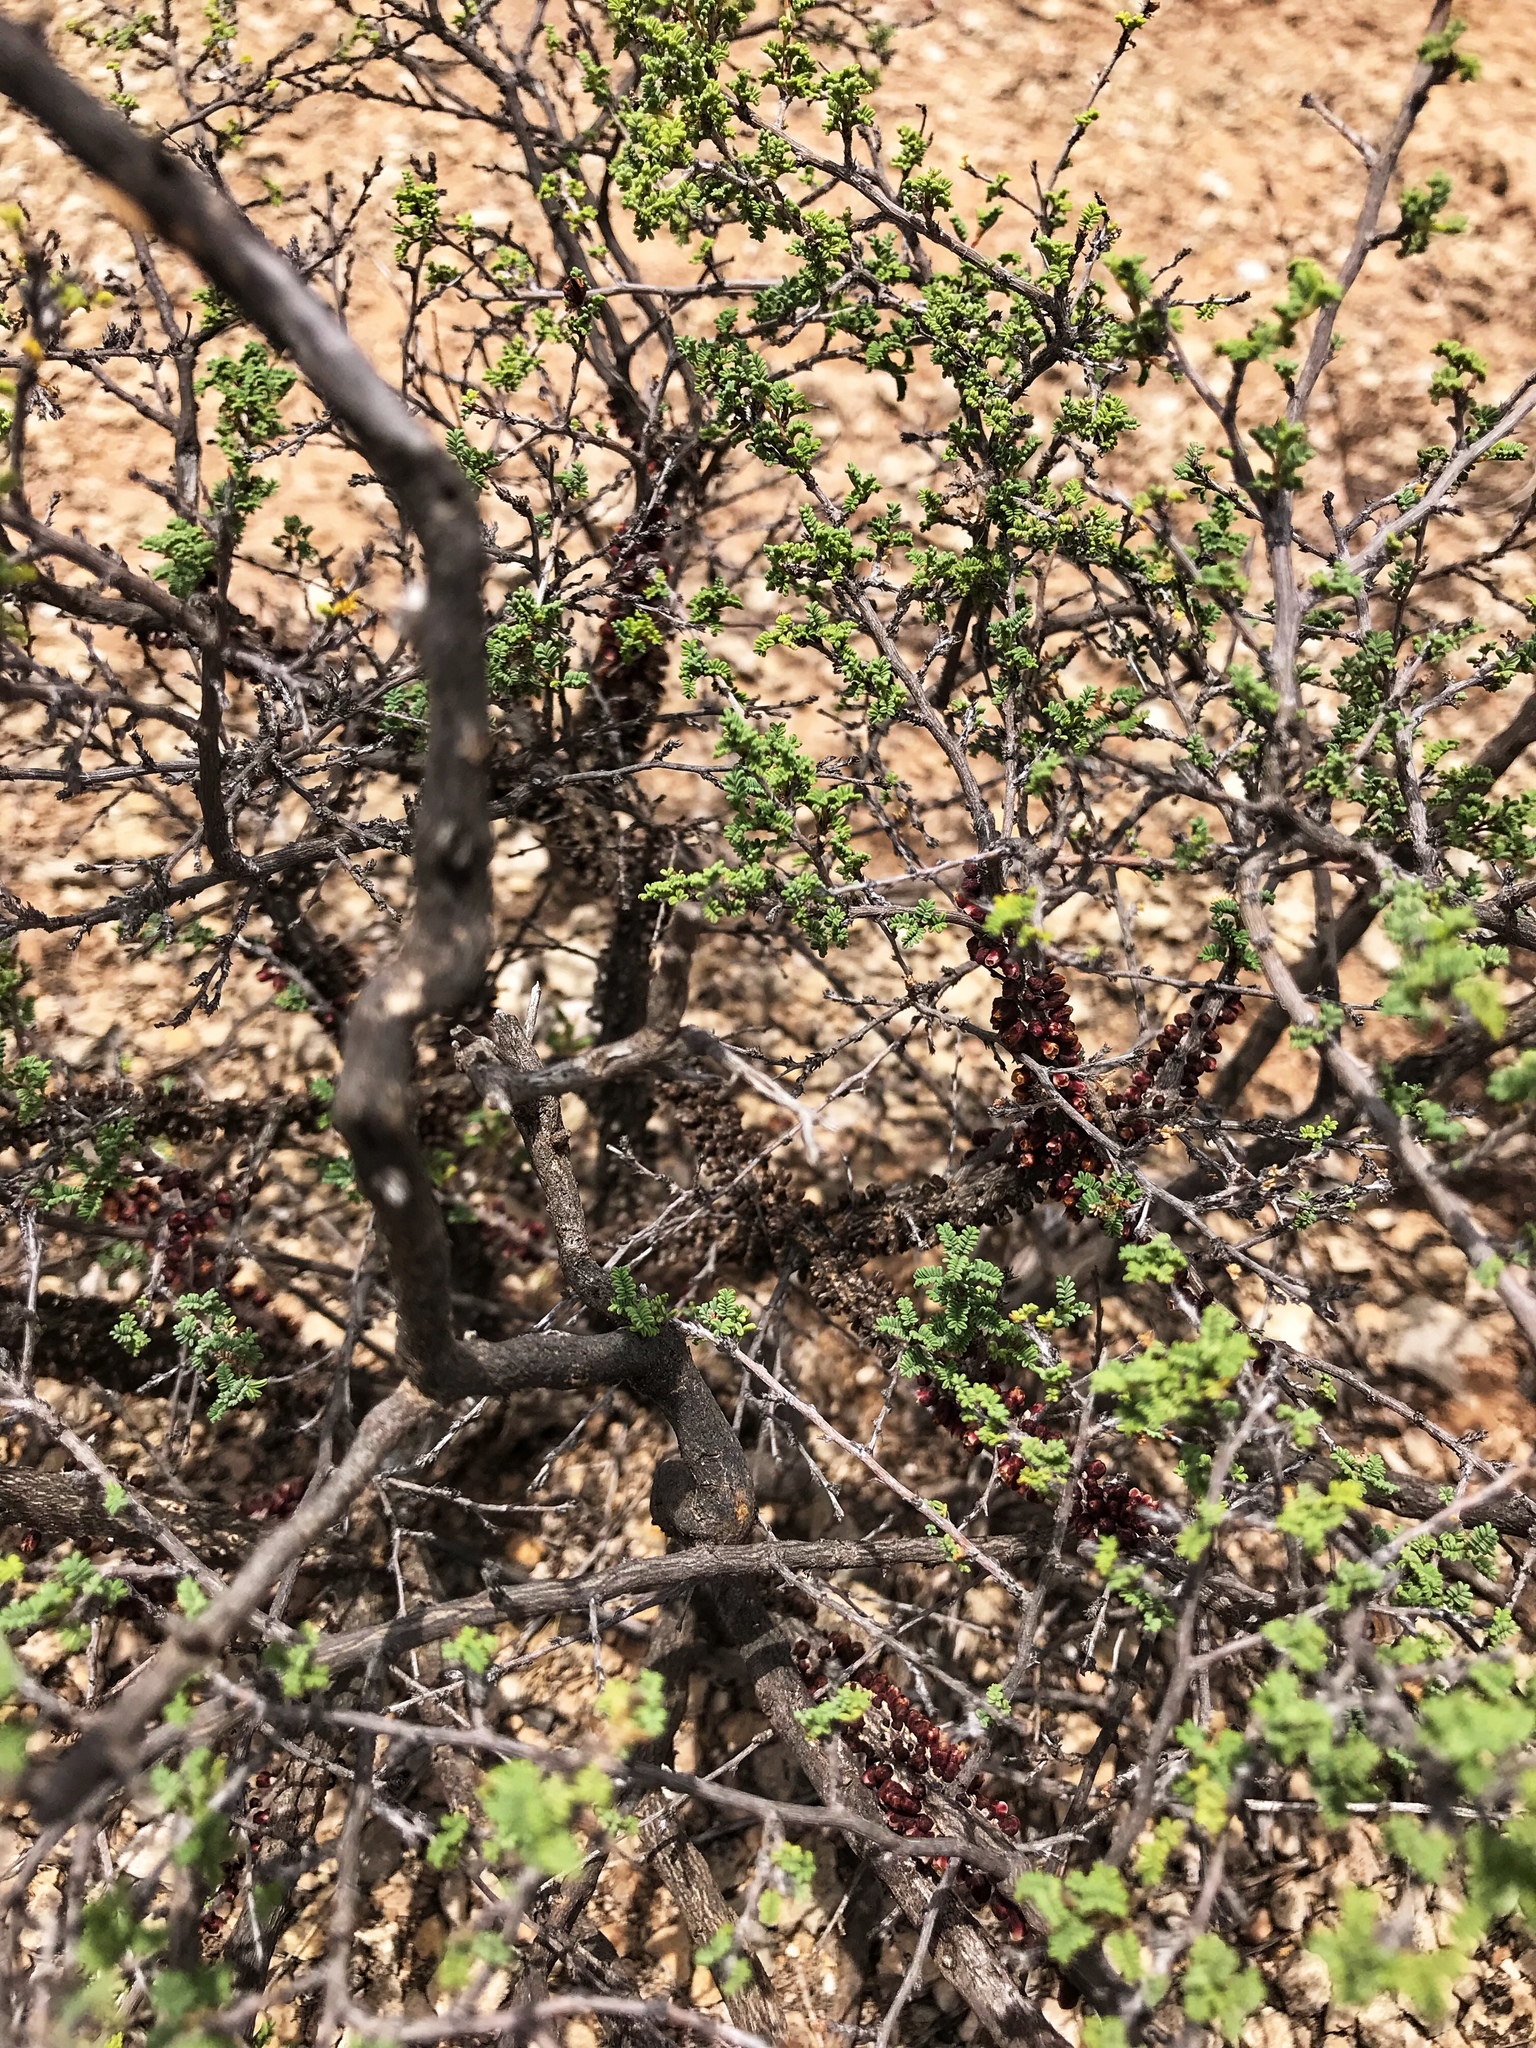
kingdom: Plantae
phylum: Tracheophyta
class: Magnoliopsida
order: Fabales
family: Fabaceae
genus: Dalea
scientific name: Dalea formosa
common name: Feather-plume dalea
